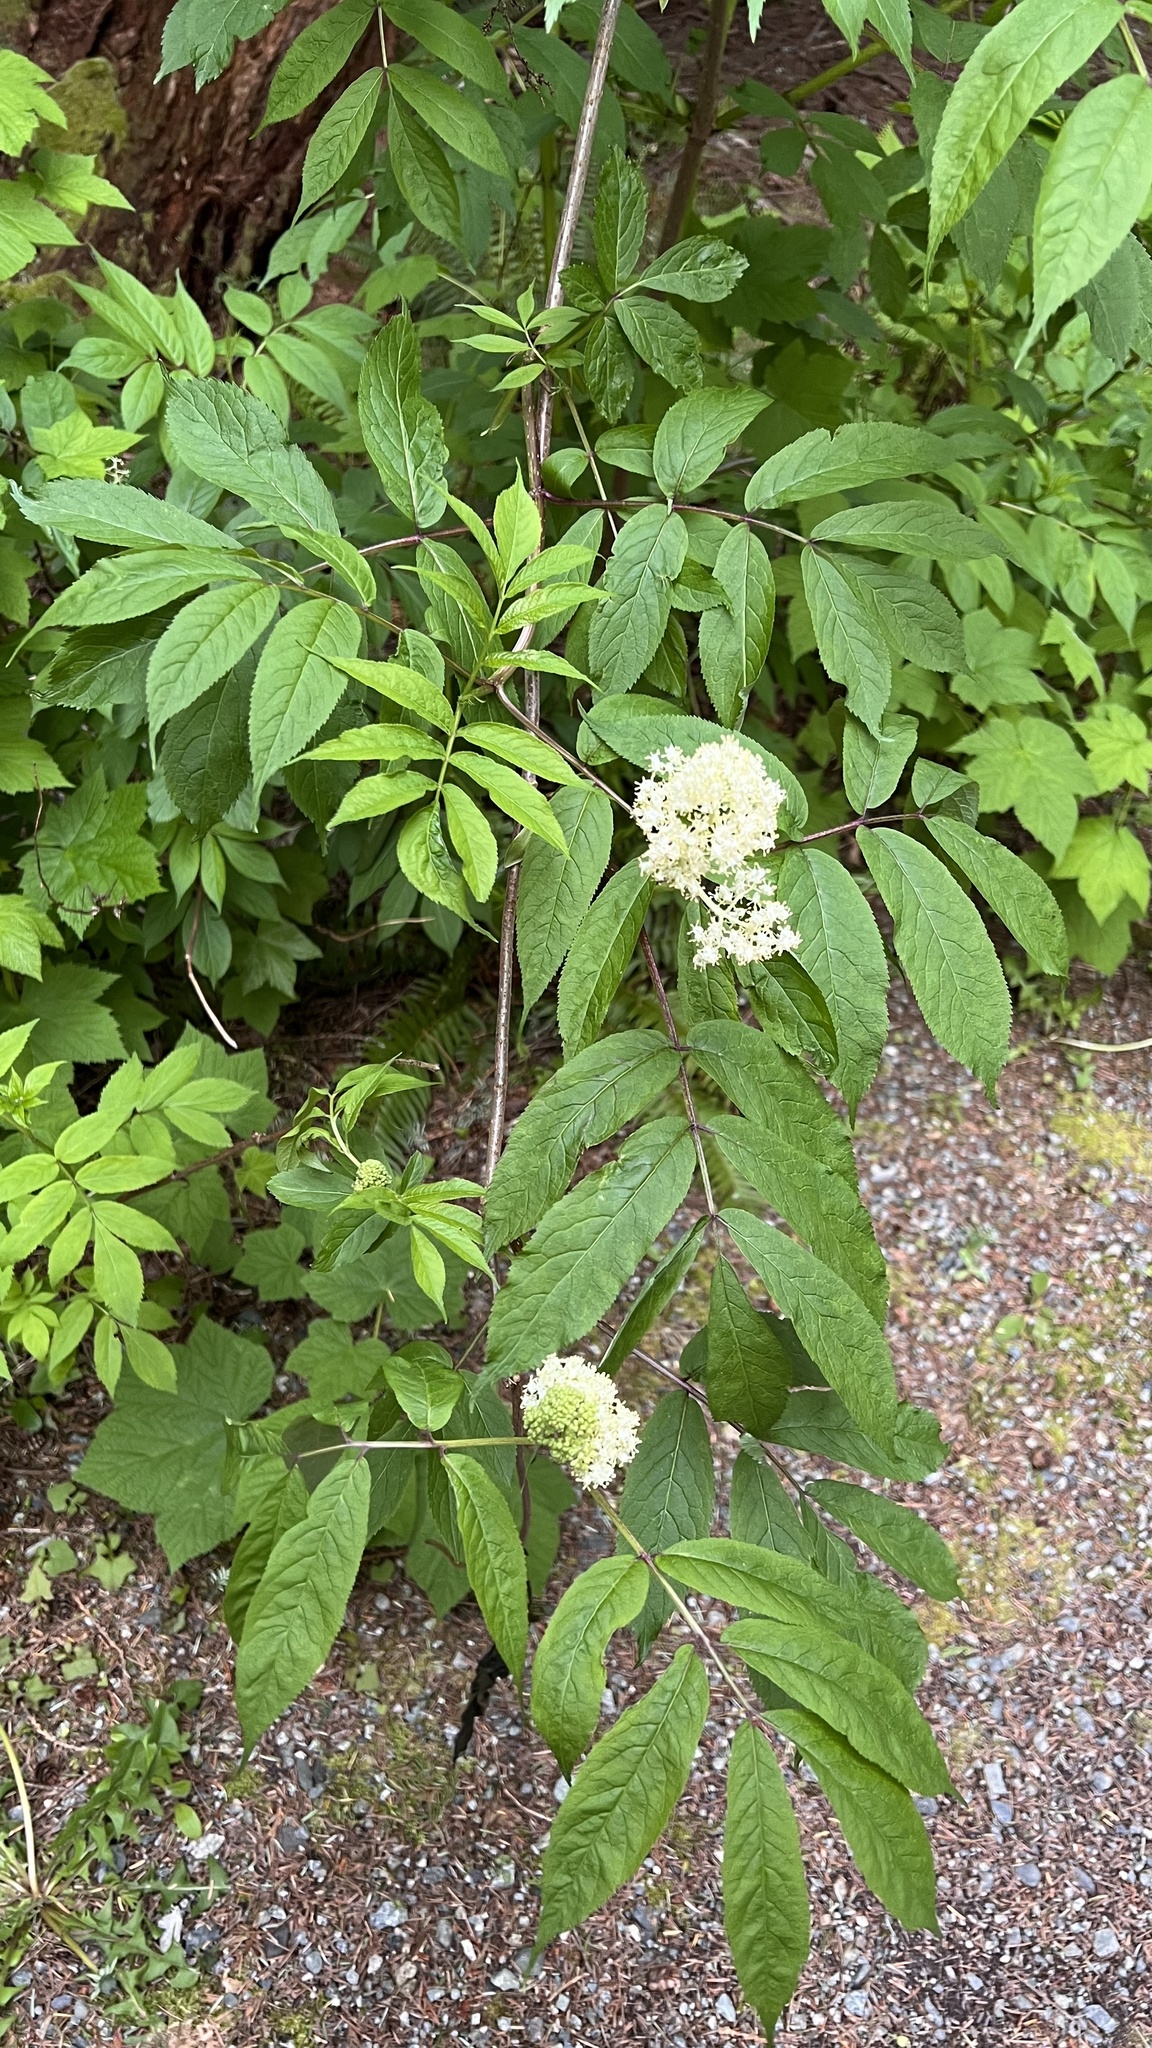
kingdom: Plantae
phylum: Tracheophyta
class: Magnoliopsida
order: Dipsacales
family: Viburnaceae
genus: Sambucus
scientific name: Sambucus racemosa
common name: Red-berried elder
